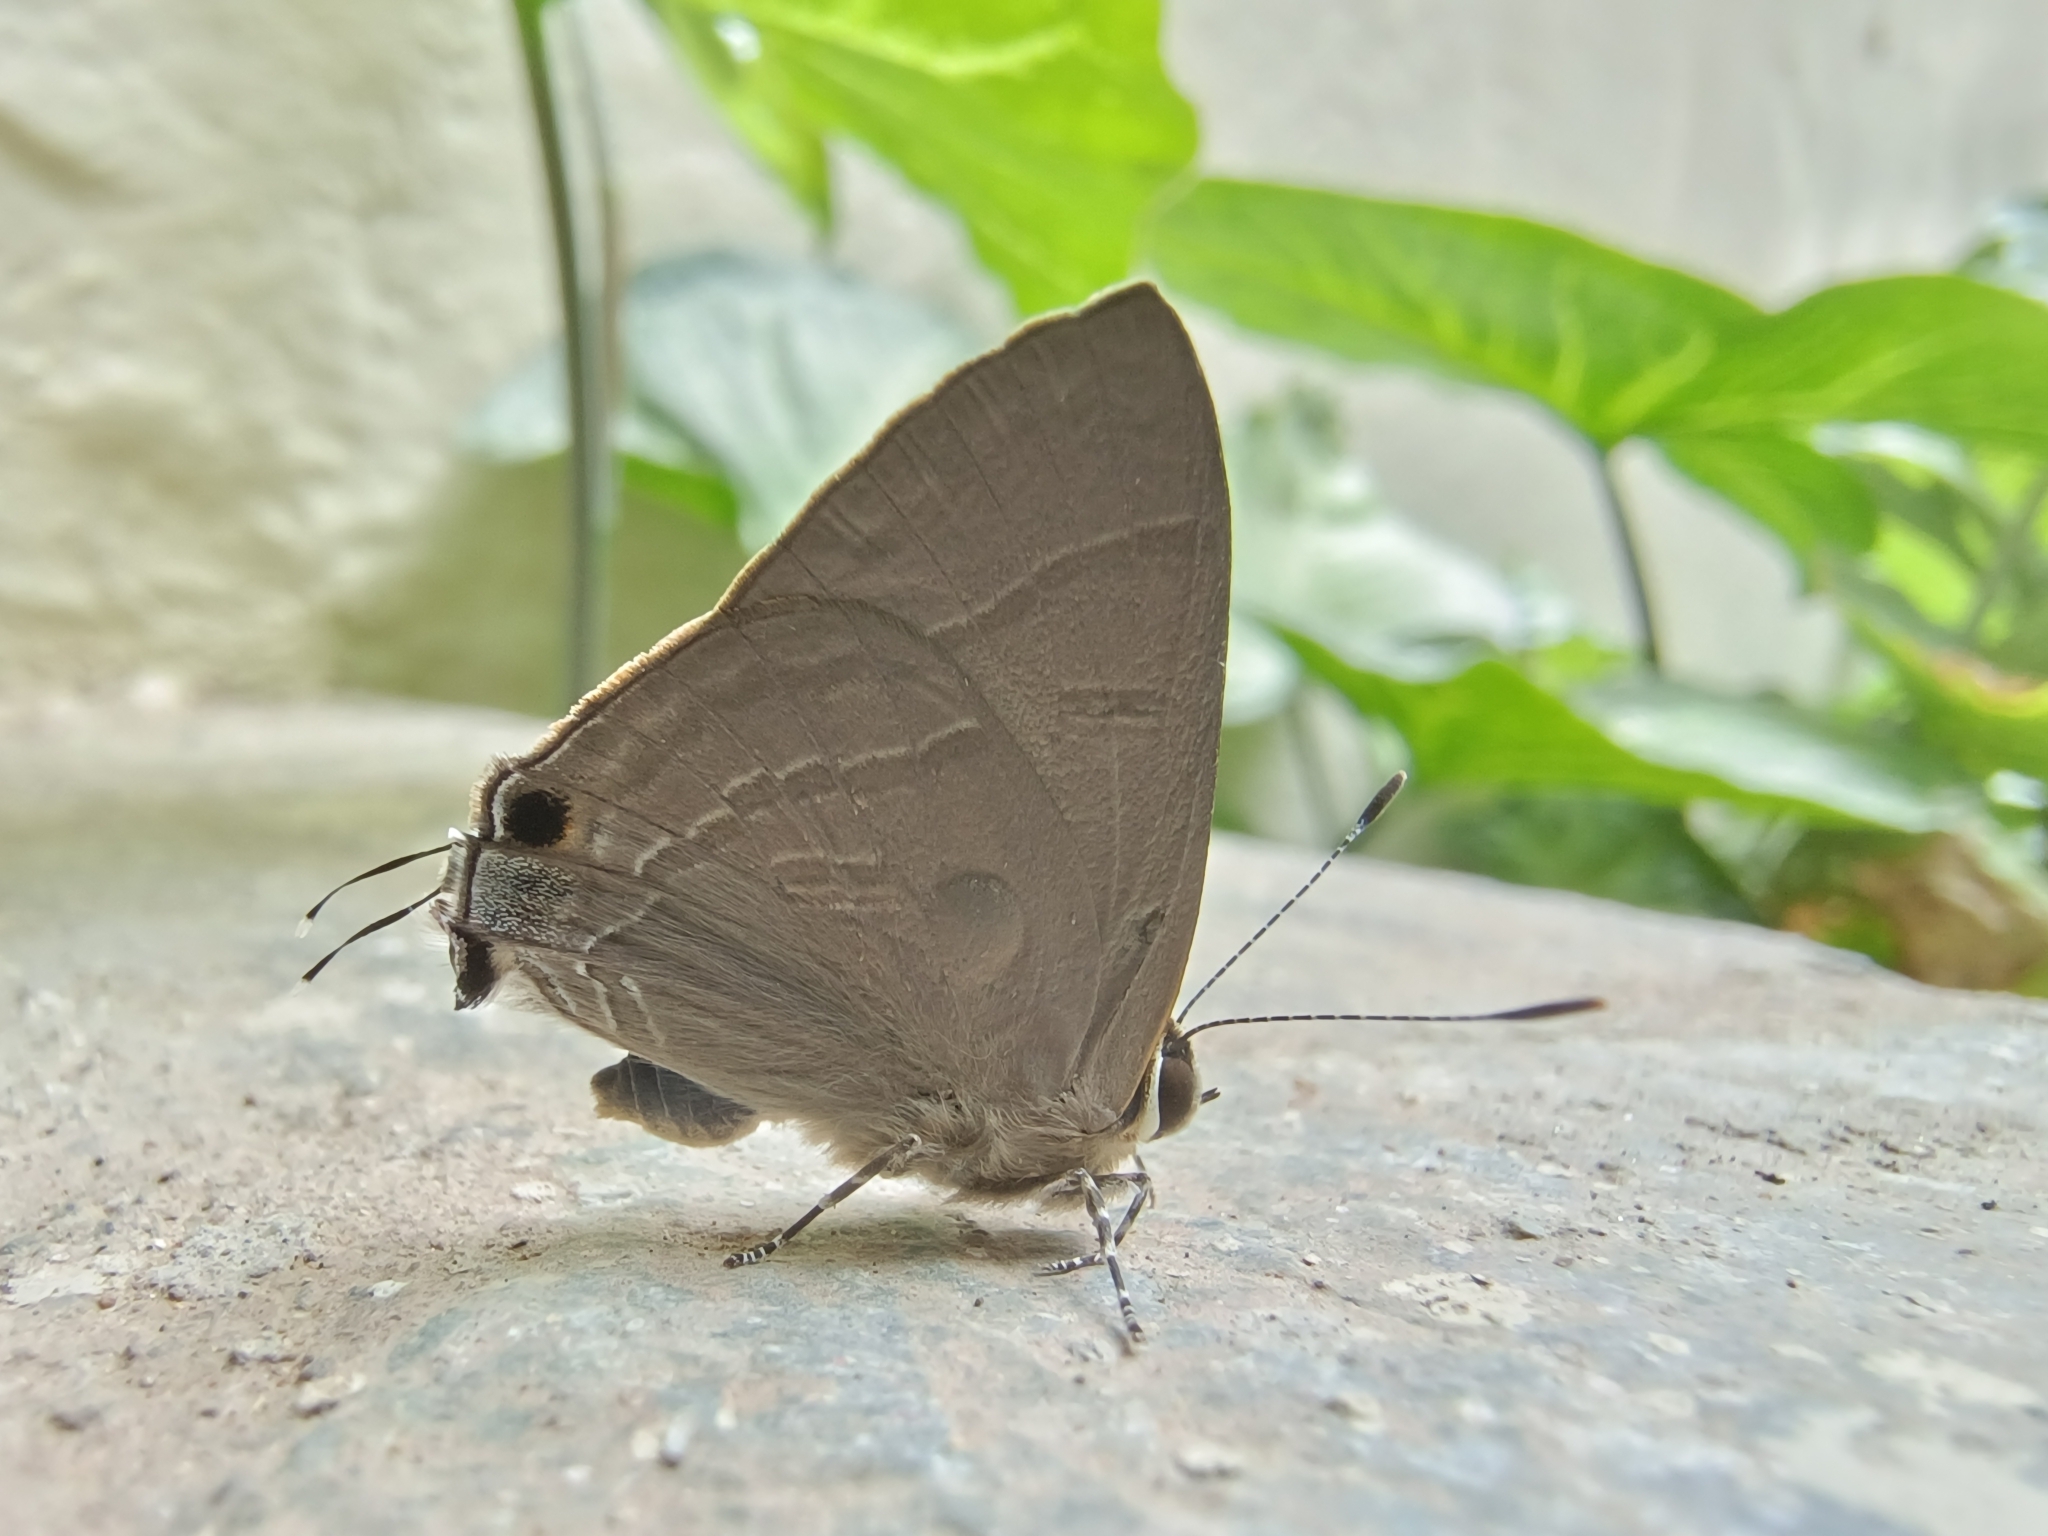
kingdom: Animalia
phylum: Arthropoda
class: Insecta
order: Lepidoptera
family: Lycaenidae
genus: Rapala
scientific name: Rapala manea
